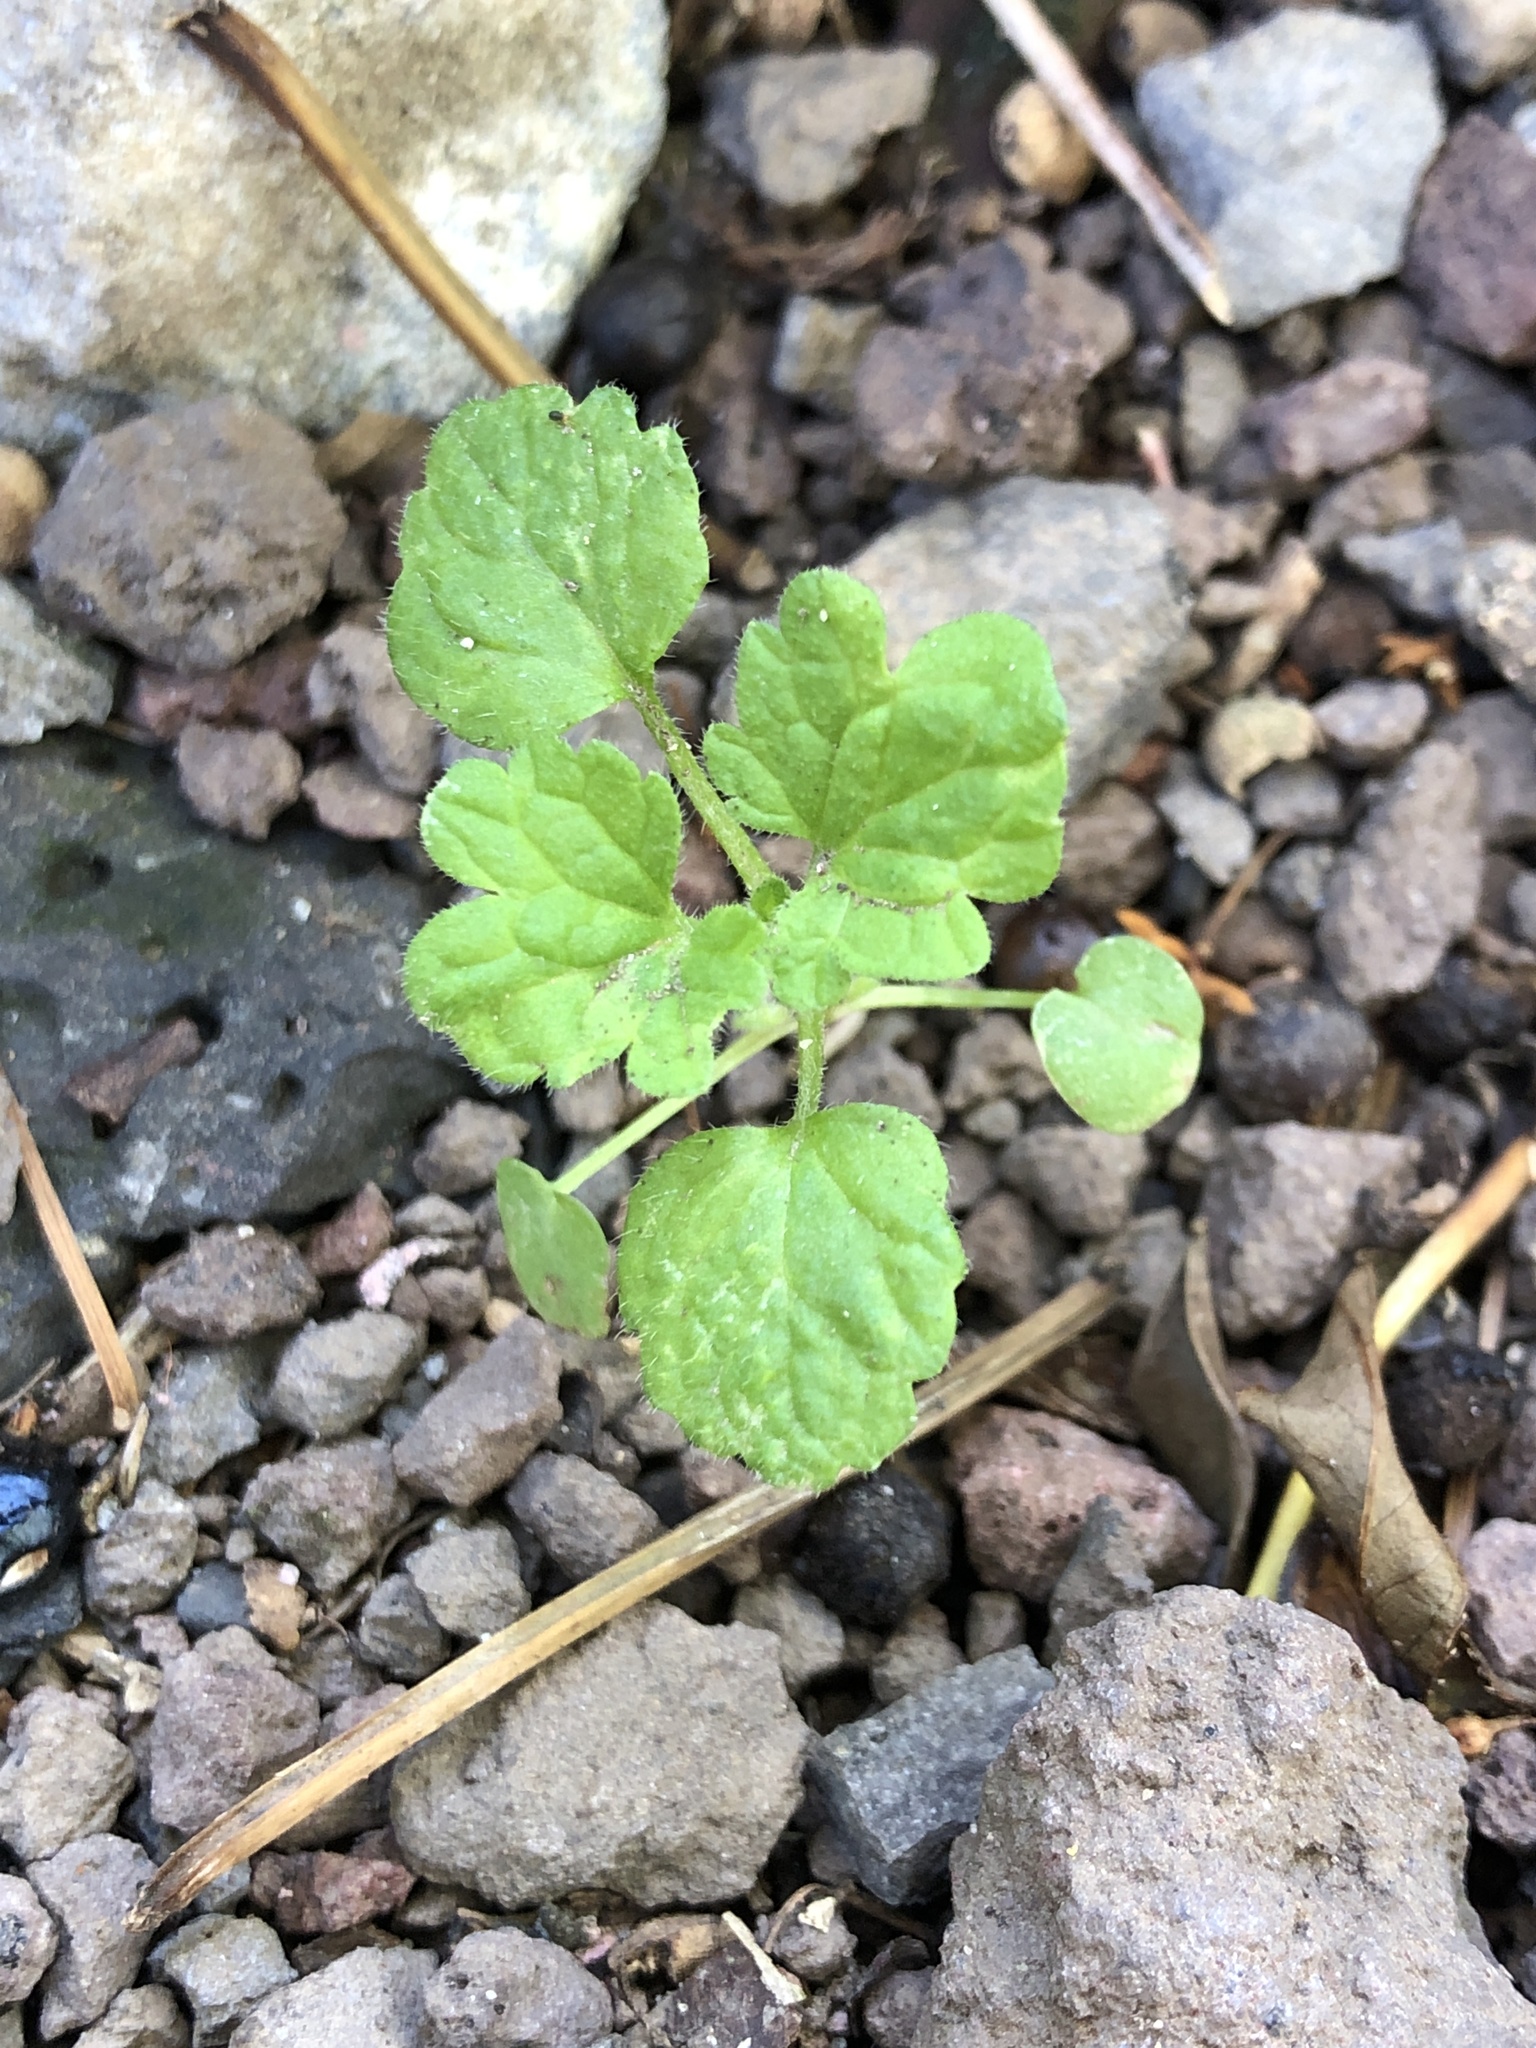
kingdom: Plantae
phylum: Tracheophyta
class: Magnoliopsida
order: Lamiales
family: Lamiaceae
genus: Lamium
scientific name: Lamium amplexicaule
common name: Henbit dead-nettle
